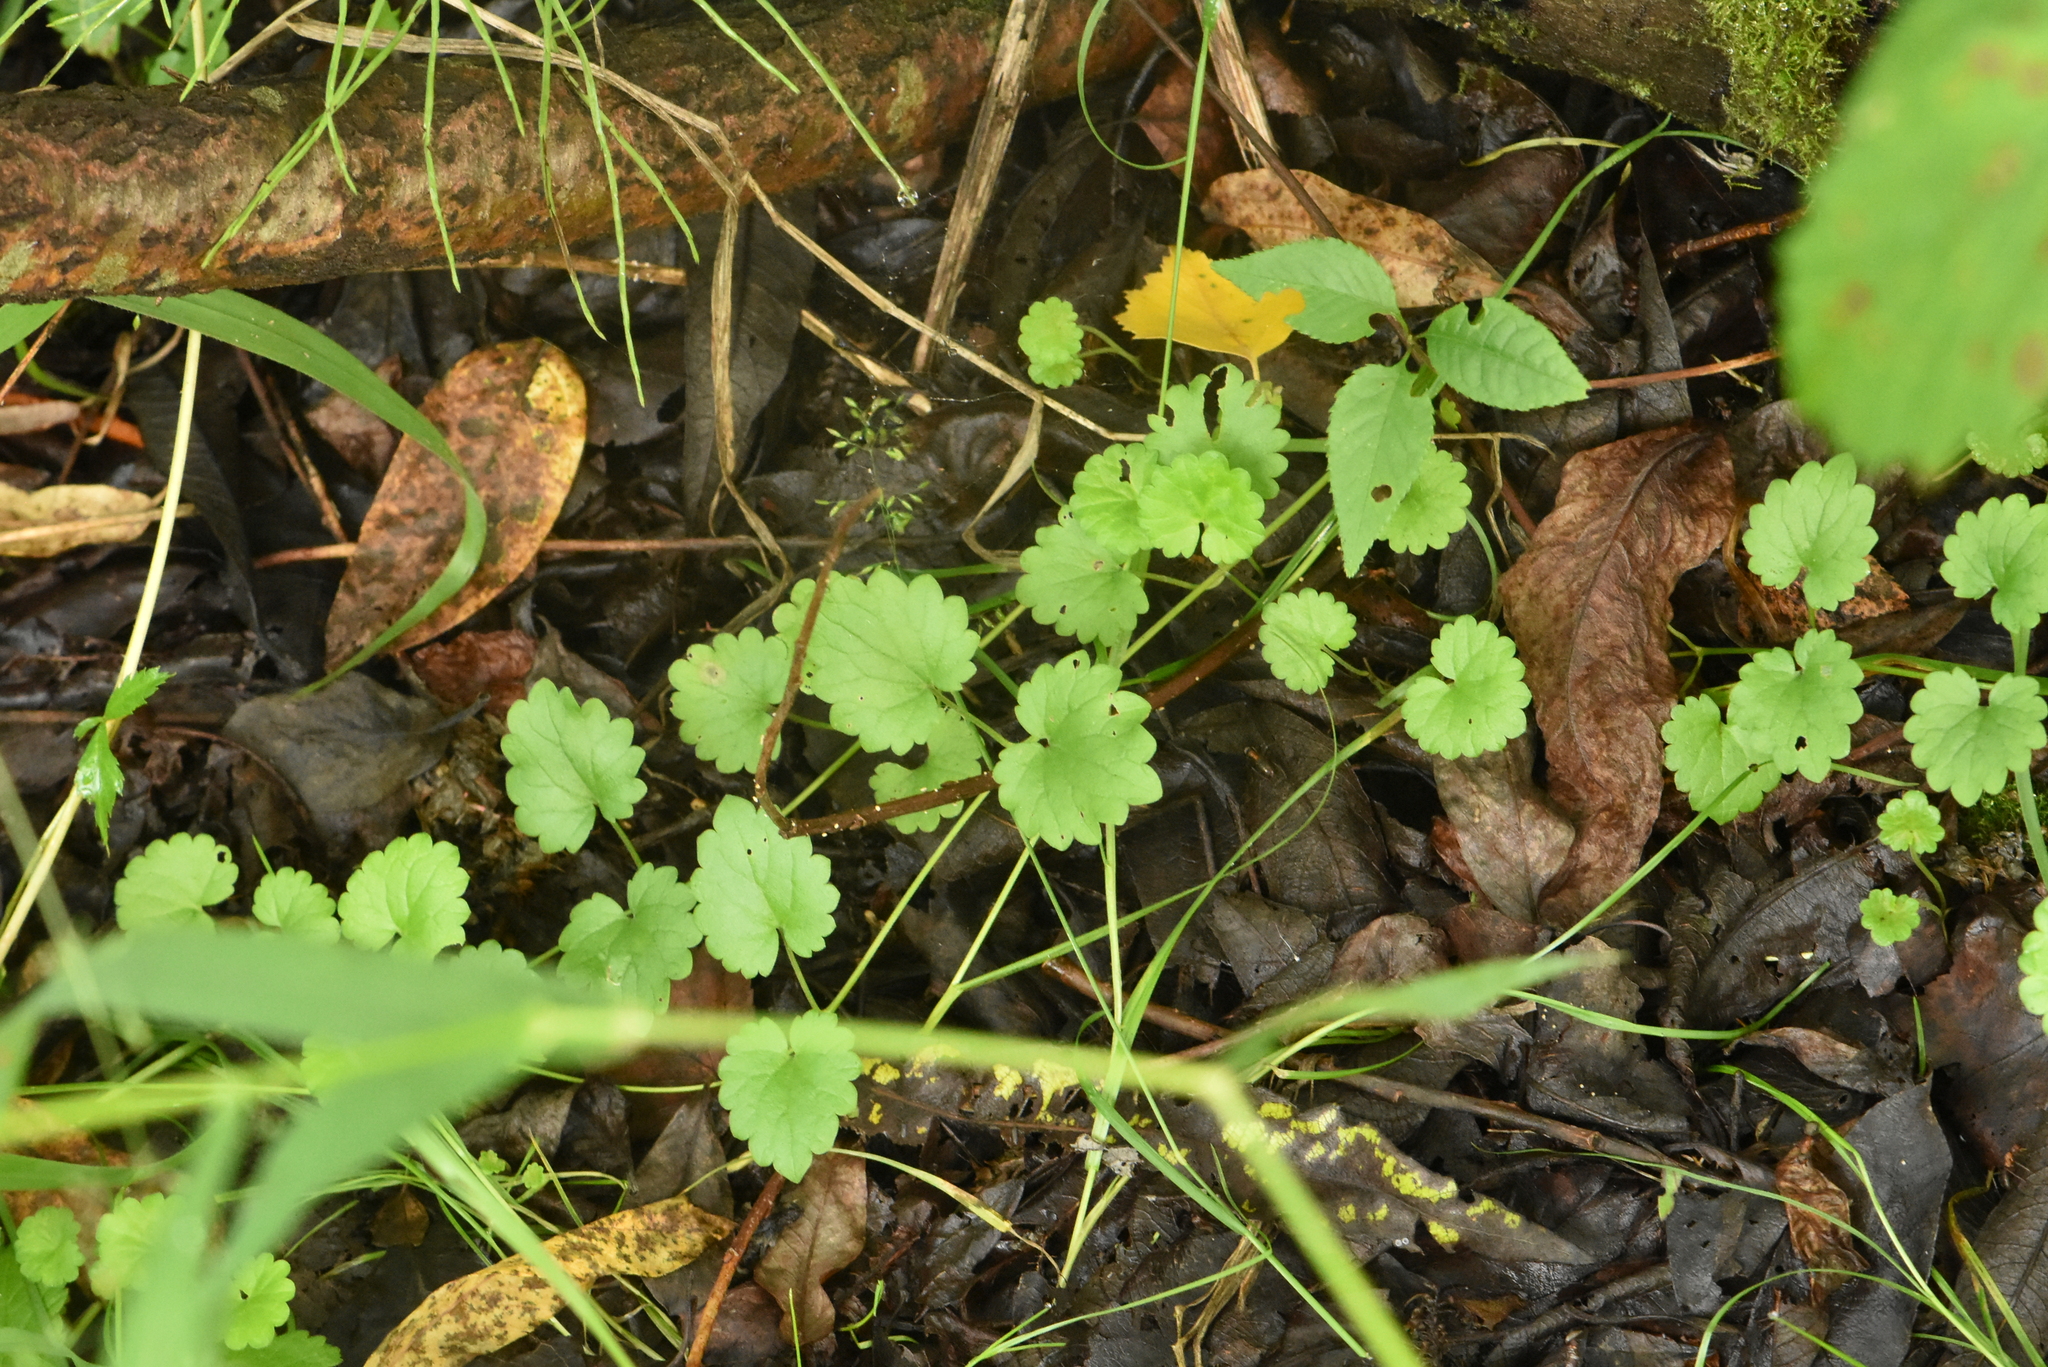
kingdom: Plantae
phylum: Tracheophyta
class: Magnoliopsida
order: Lamiales
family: Lamiaceae
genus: Glechoma
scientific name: Glechoma hederacea
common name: Ground ivy
